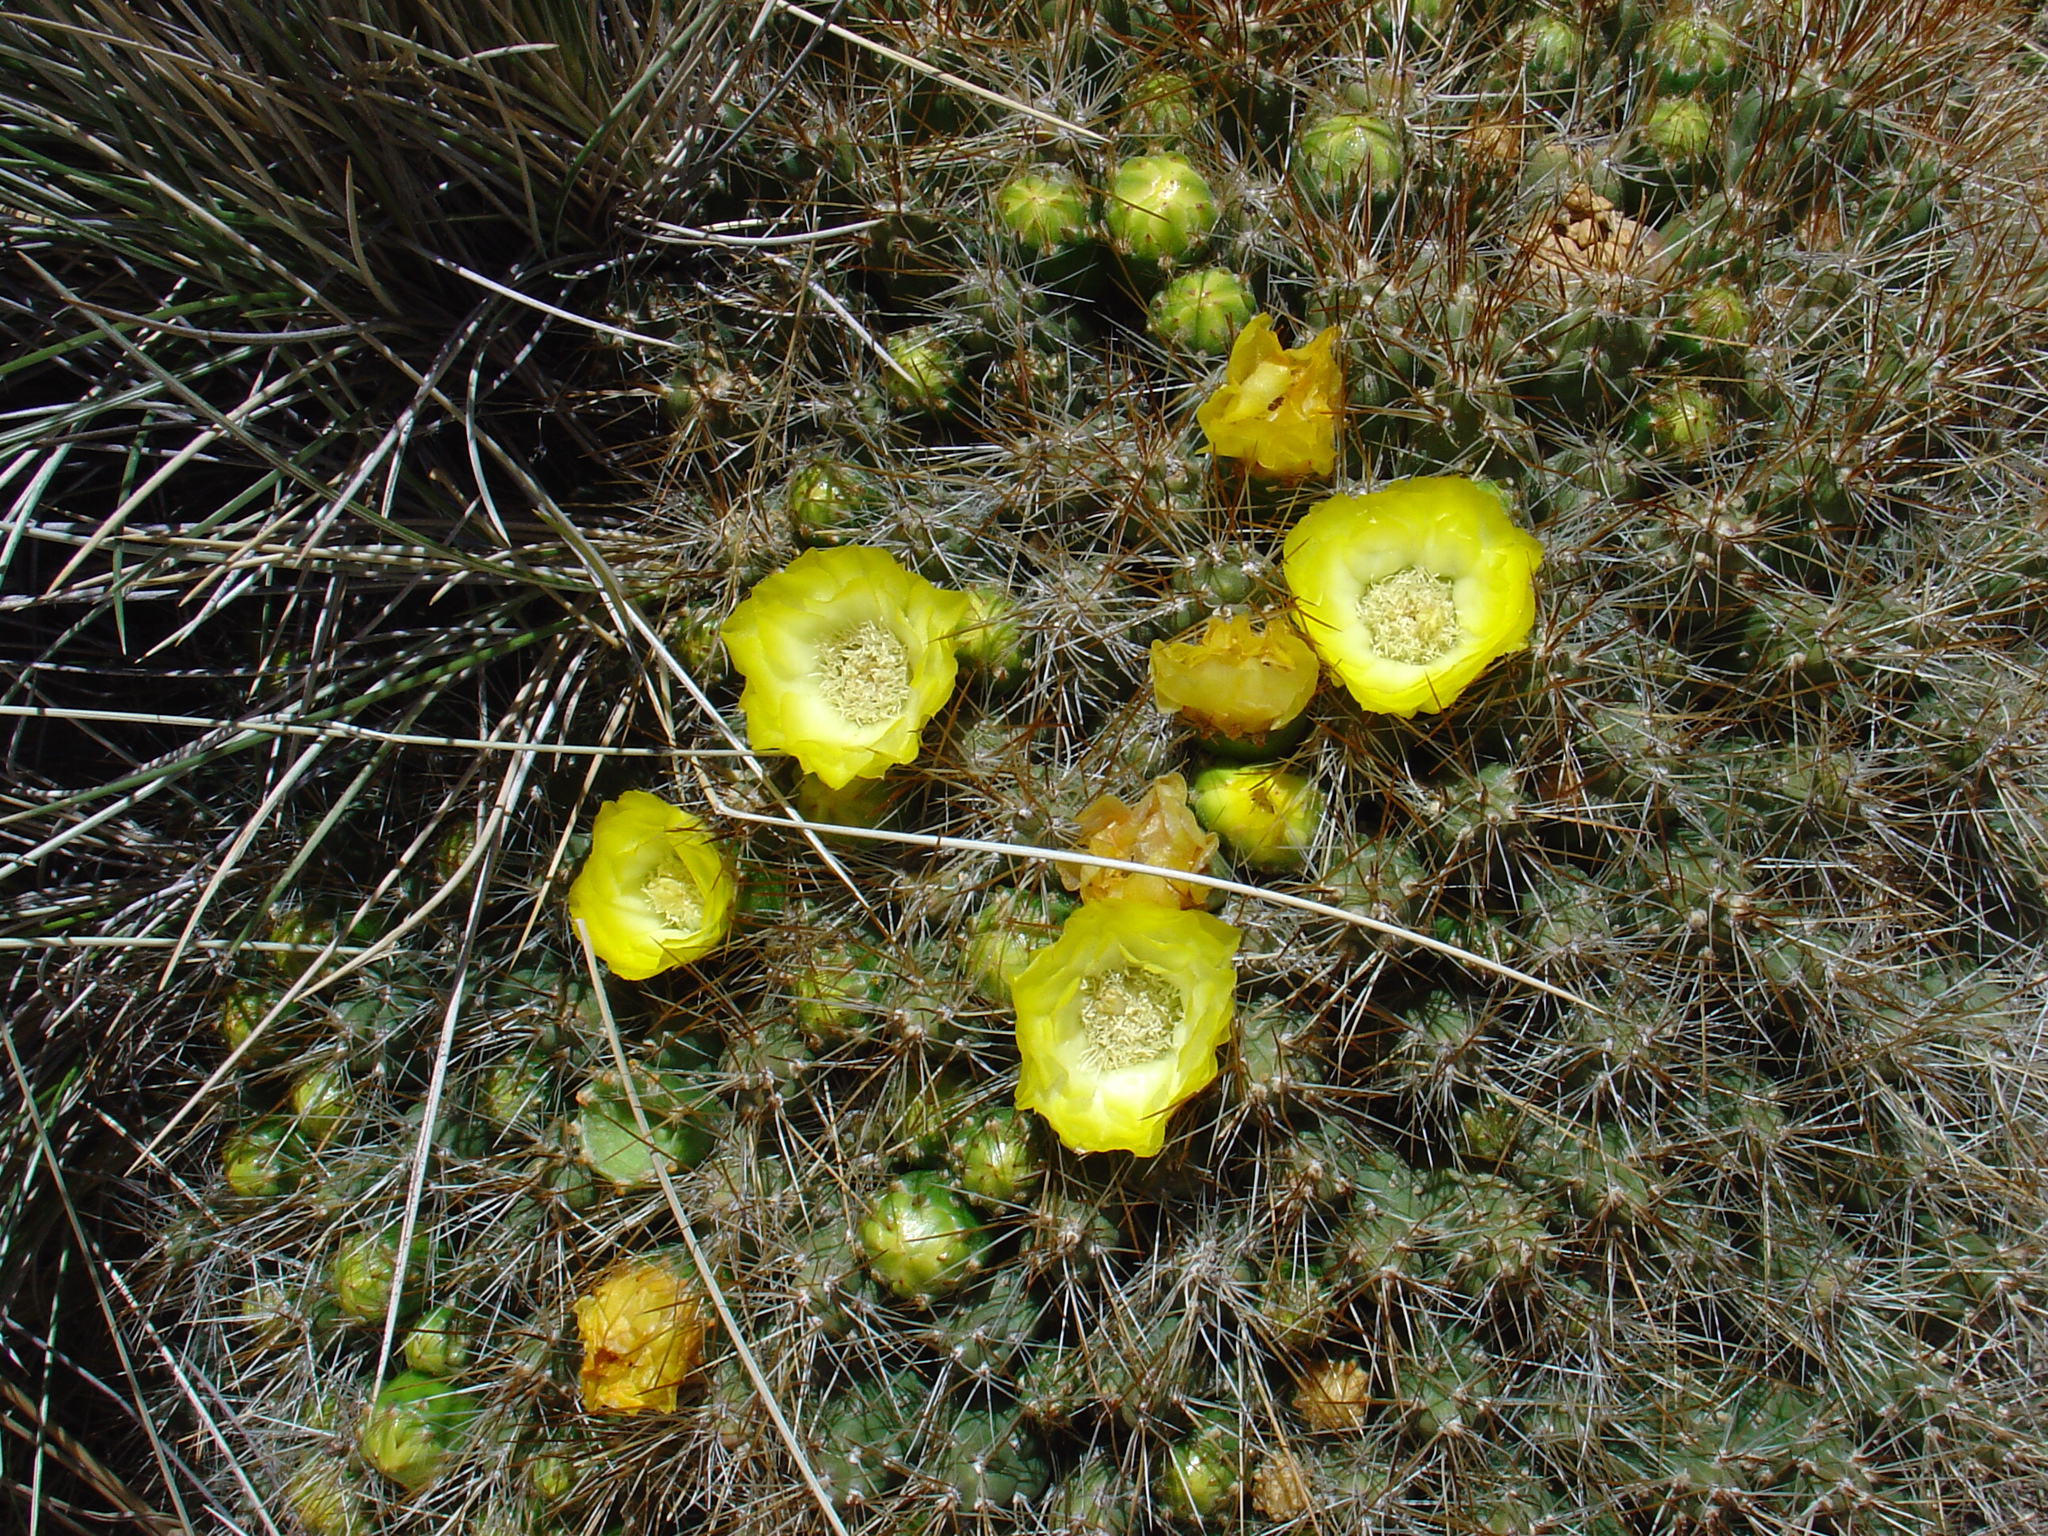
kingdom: Plantae
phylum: Tracheophyta
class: Magnoliopsida
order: Caryophyllales
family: Cactaceae
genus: Cumulopuntia
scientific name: Cumulopuntia boliviana
